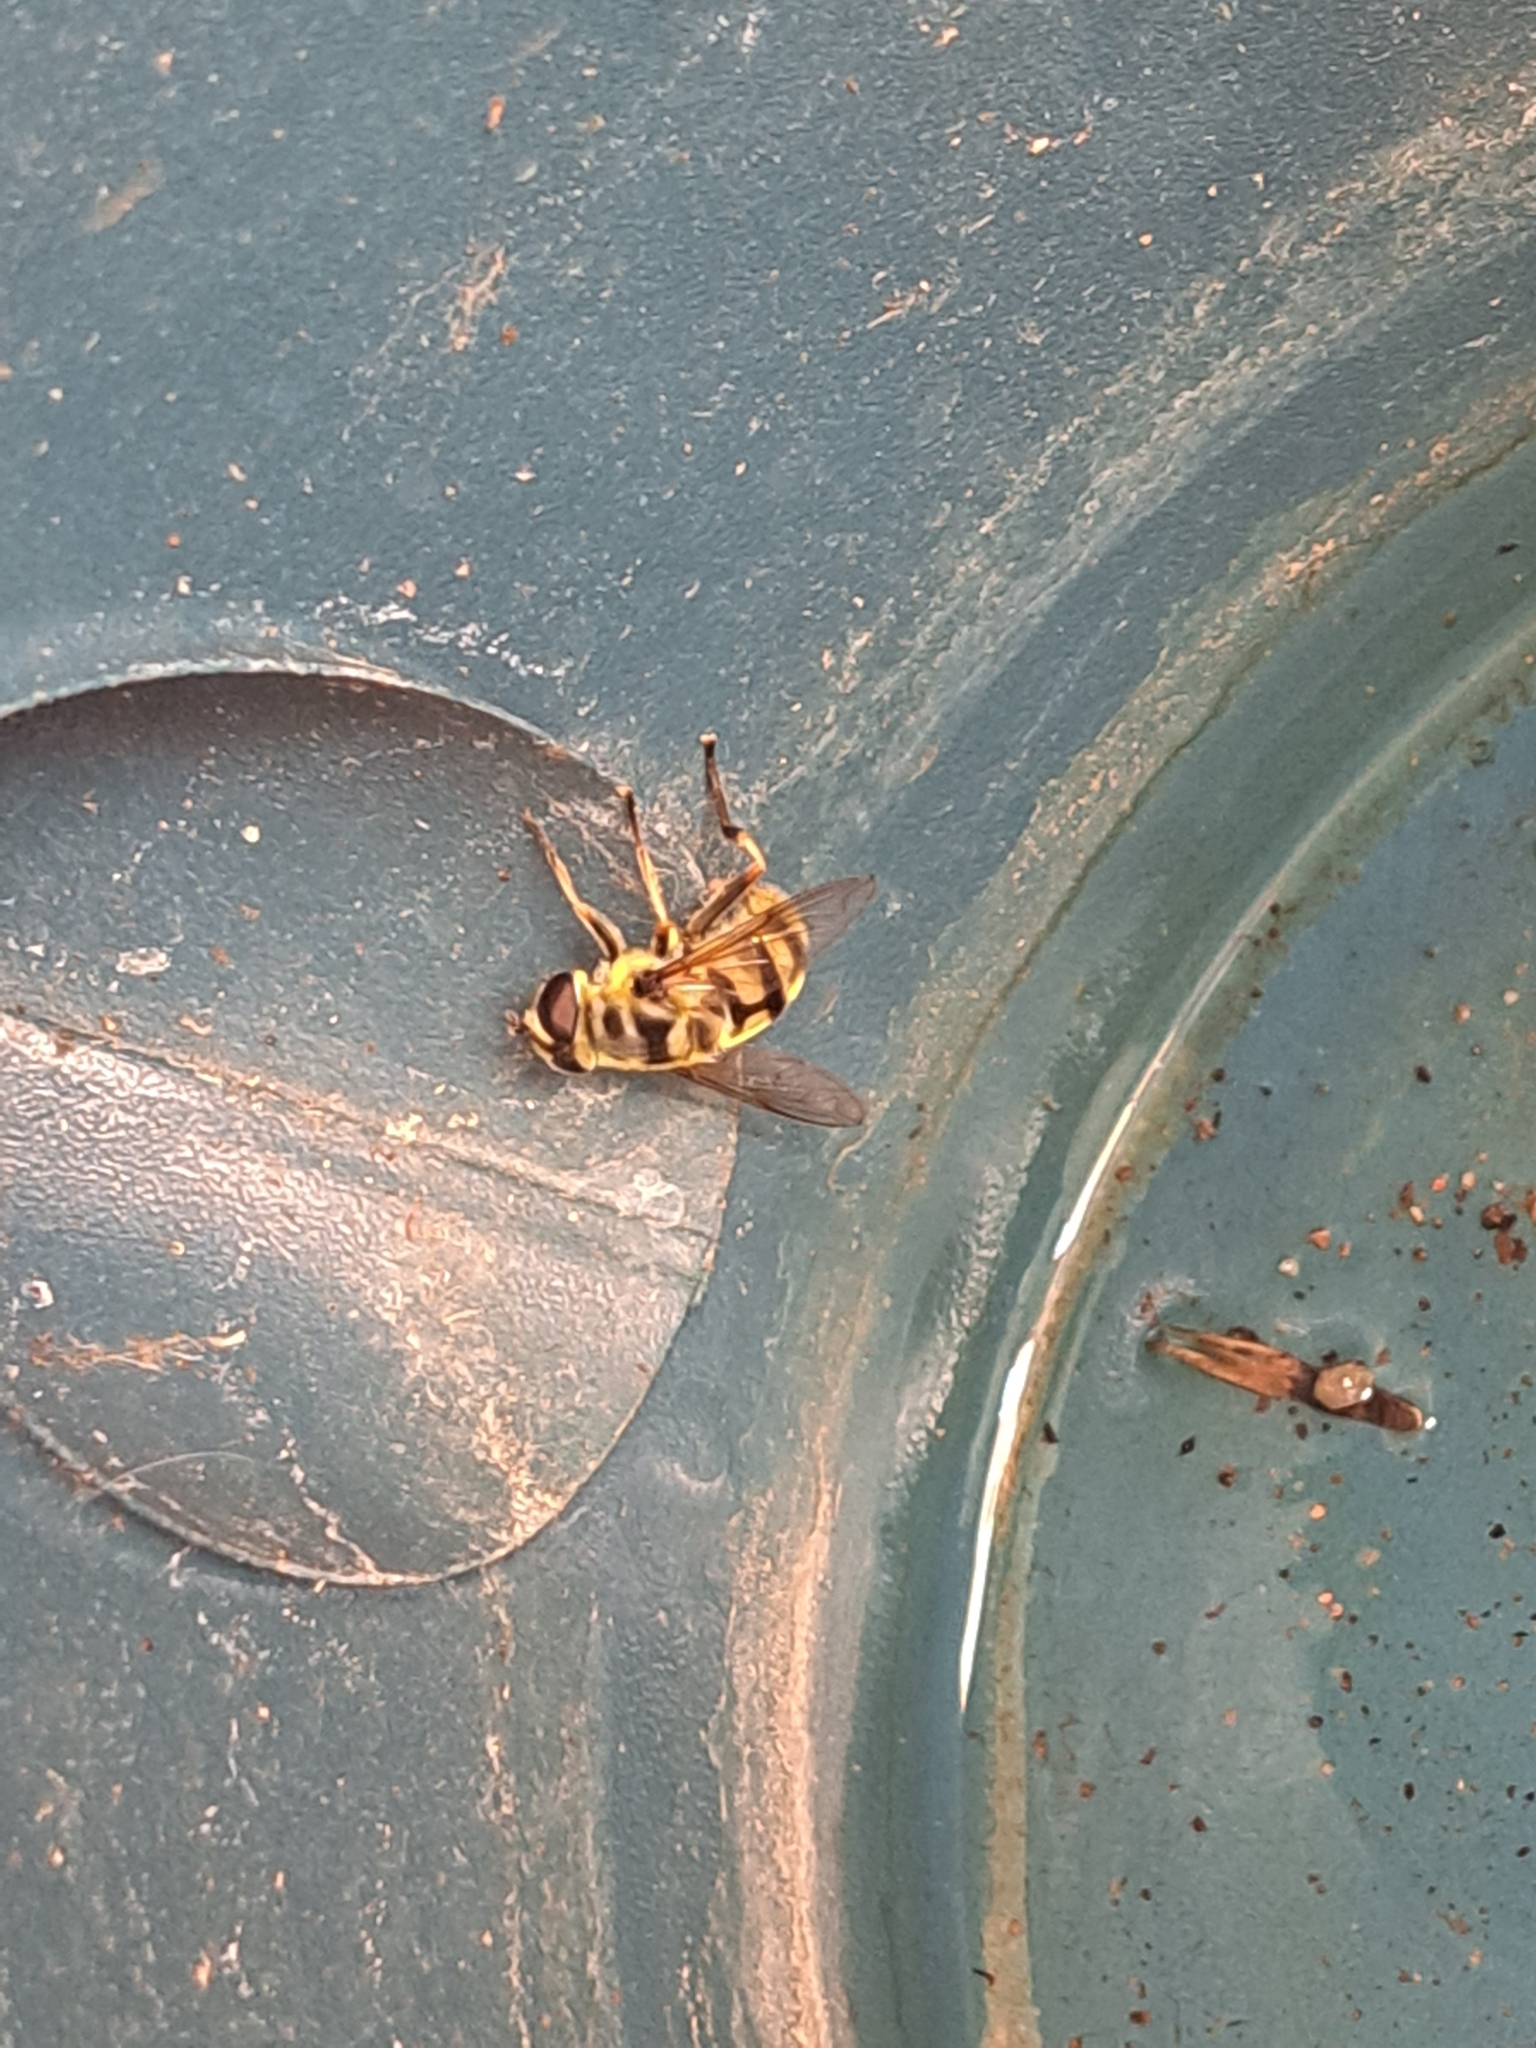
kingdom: Animalia
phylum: Arthropoda
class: Insecta
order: Diptera
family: Syrphidae
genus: Myathropa
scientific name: Myathropa florea
